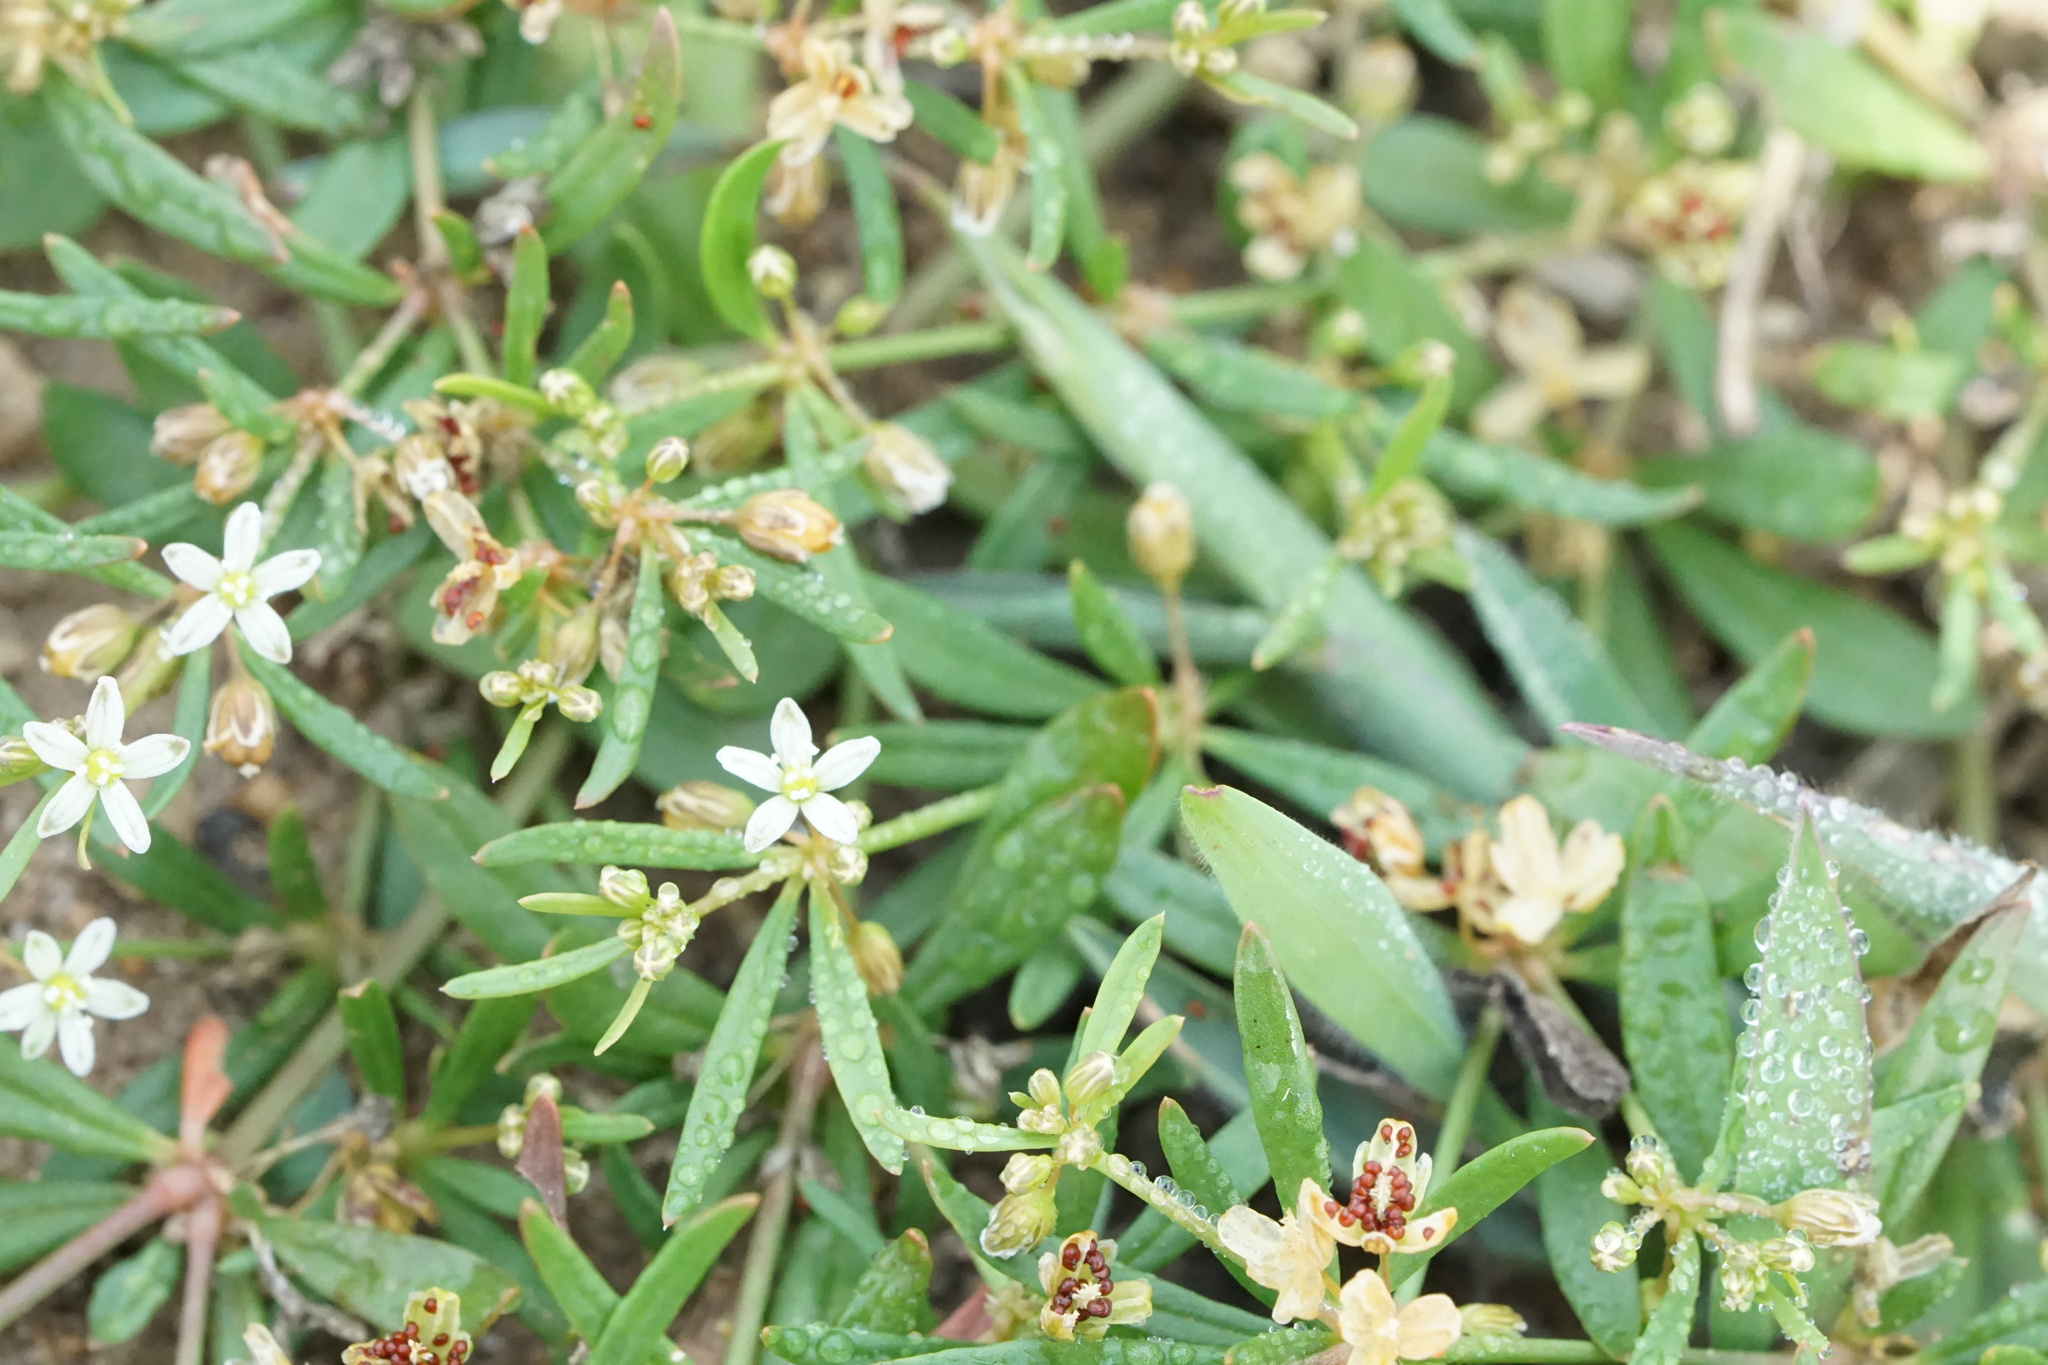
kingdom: Plantae
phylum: Tracheophyta
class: Magnoliopsida
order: Caryophyllales
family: Molluginaceae
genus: Mollugo
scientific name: Mollugo verticillata
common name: Green carpetweed
